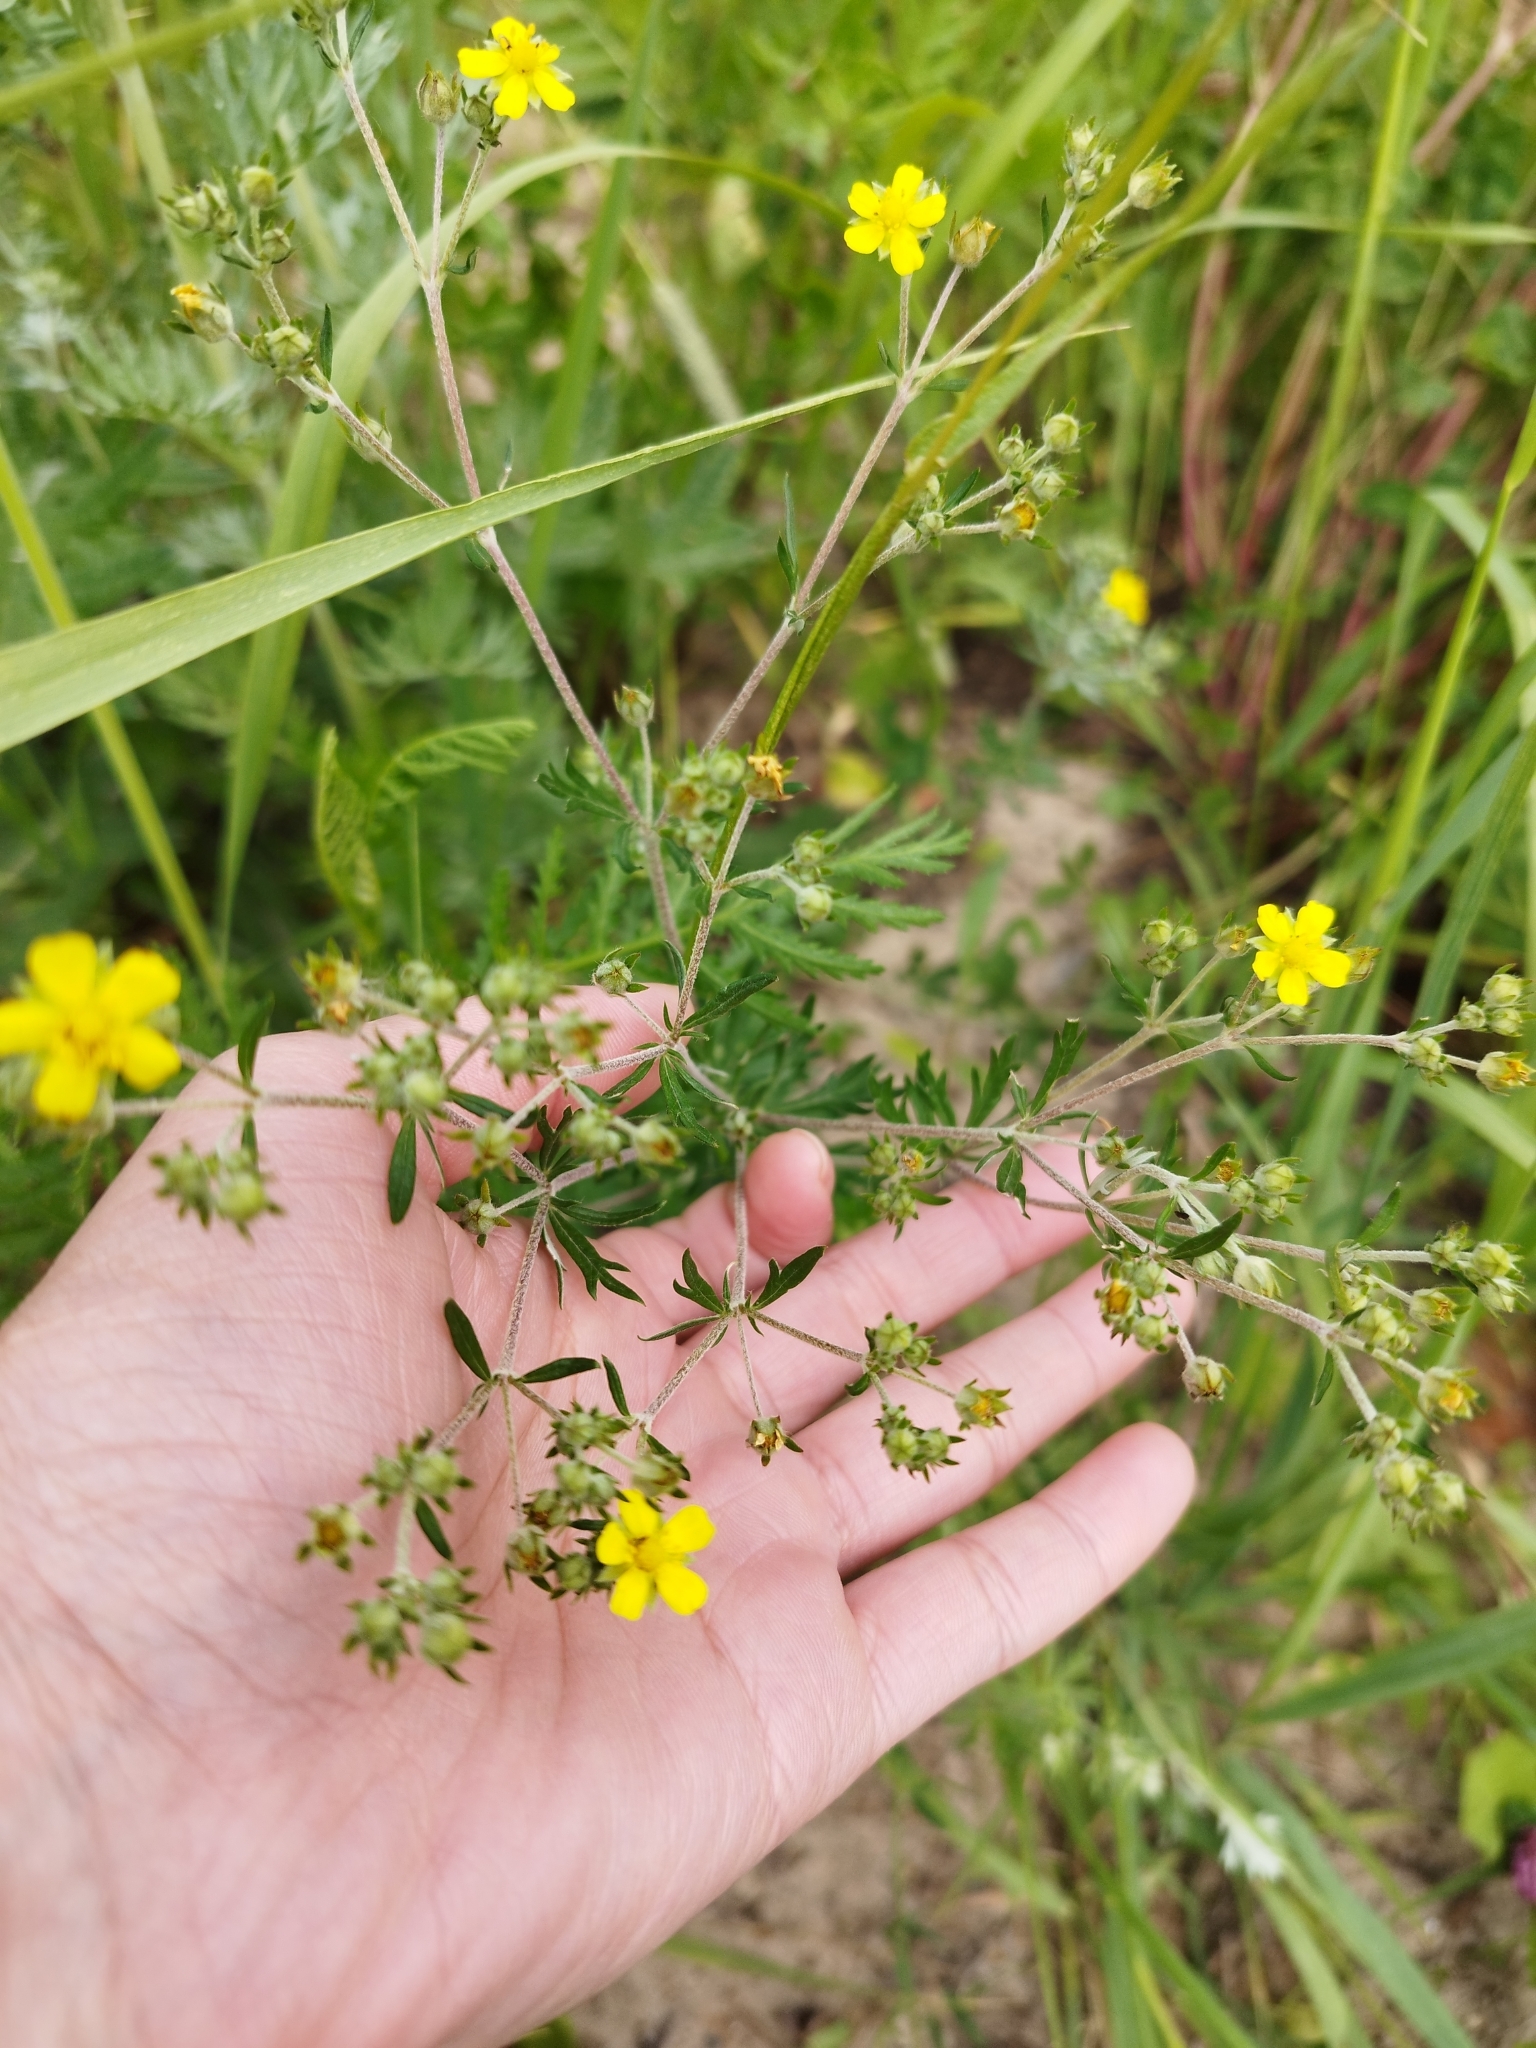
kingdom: Plantae
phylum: Tracheophyta
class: Magnoliopsida
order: Rosales
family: Rosaceae
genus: Potentilla
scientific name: Potentilla argentea
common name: Hoary cinquefoil
